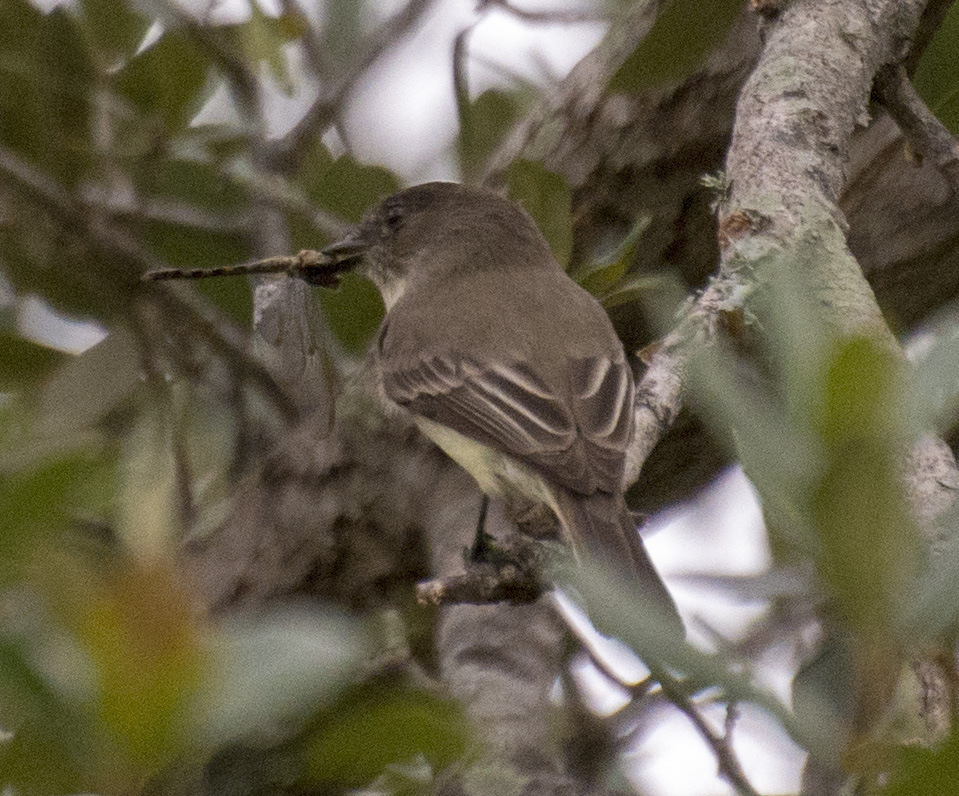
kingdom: Animalia
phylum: Chordata
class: Aves
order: Passeriformes
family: Tyrannidae
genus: Sayornis
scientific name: Sayornis phoebe
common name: Eastern phoebe
